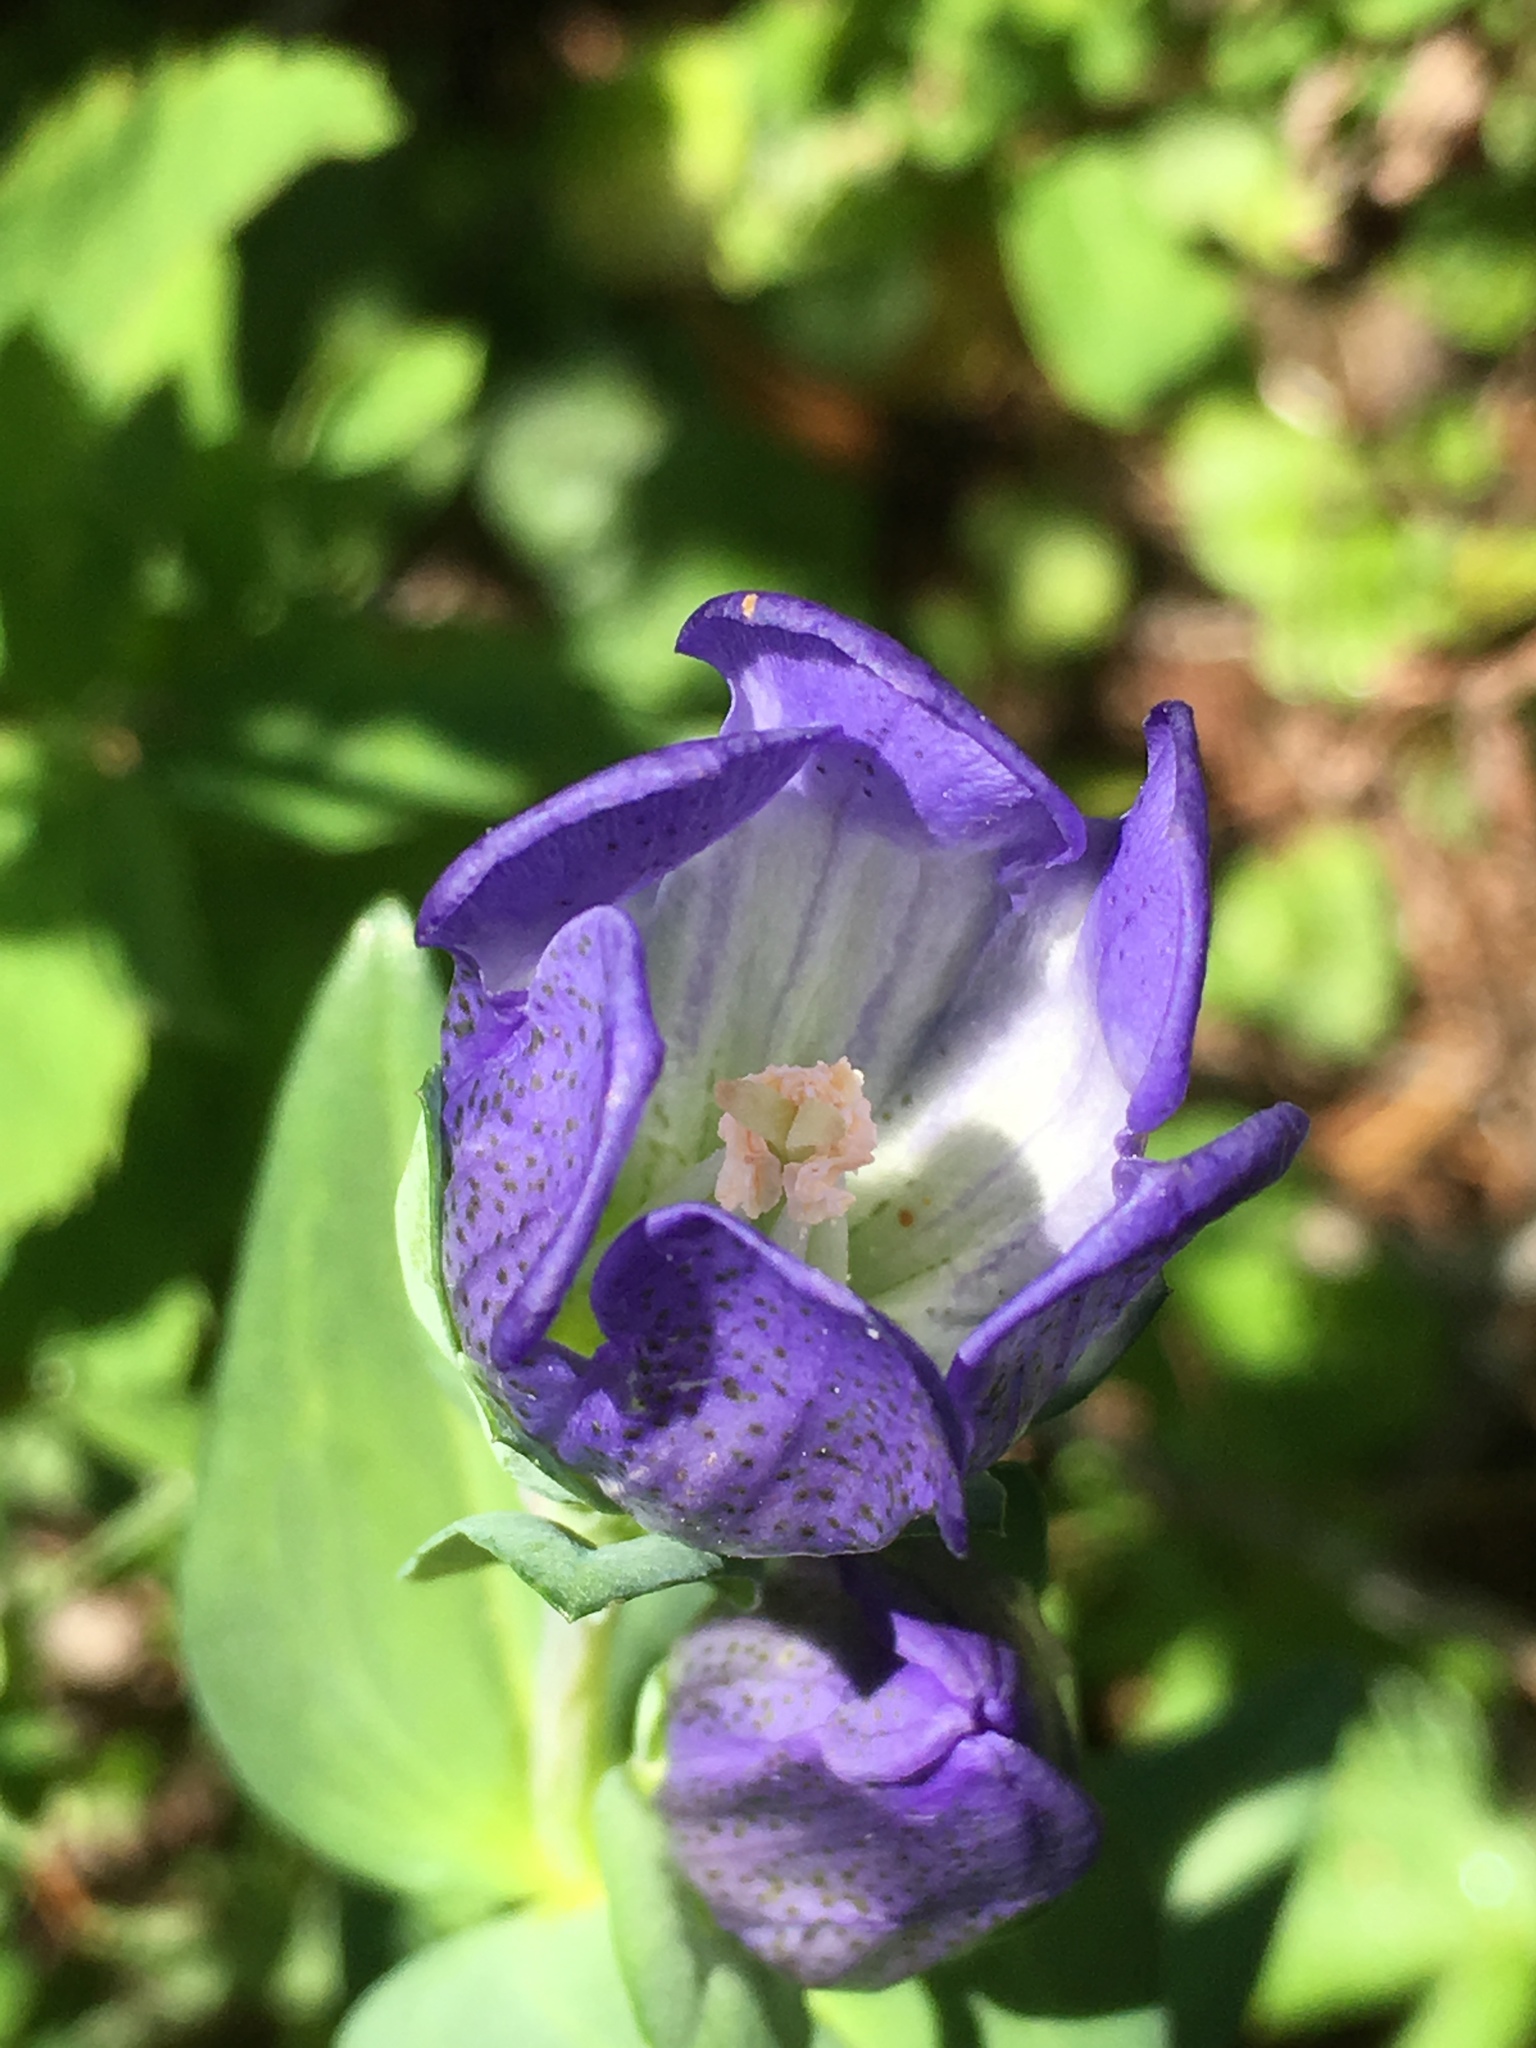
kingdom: Plantae
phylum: Tracheophyta
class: Magnoliopsida
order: Gentianales
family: Gentianaceae
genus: Gentiana
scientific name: Gentiana sceptrum
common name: Pacific gentian
